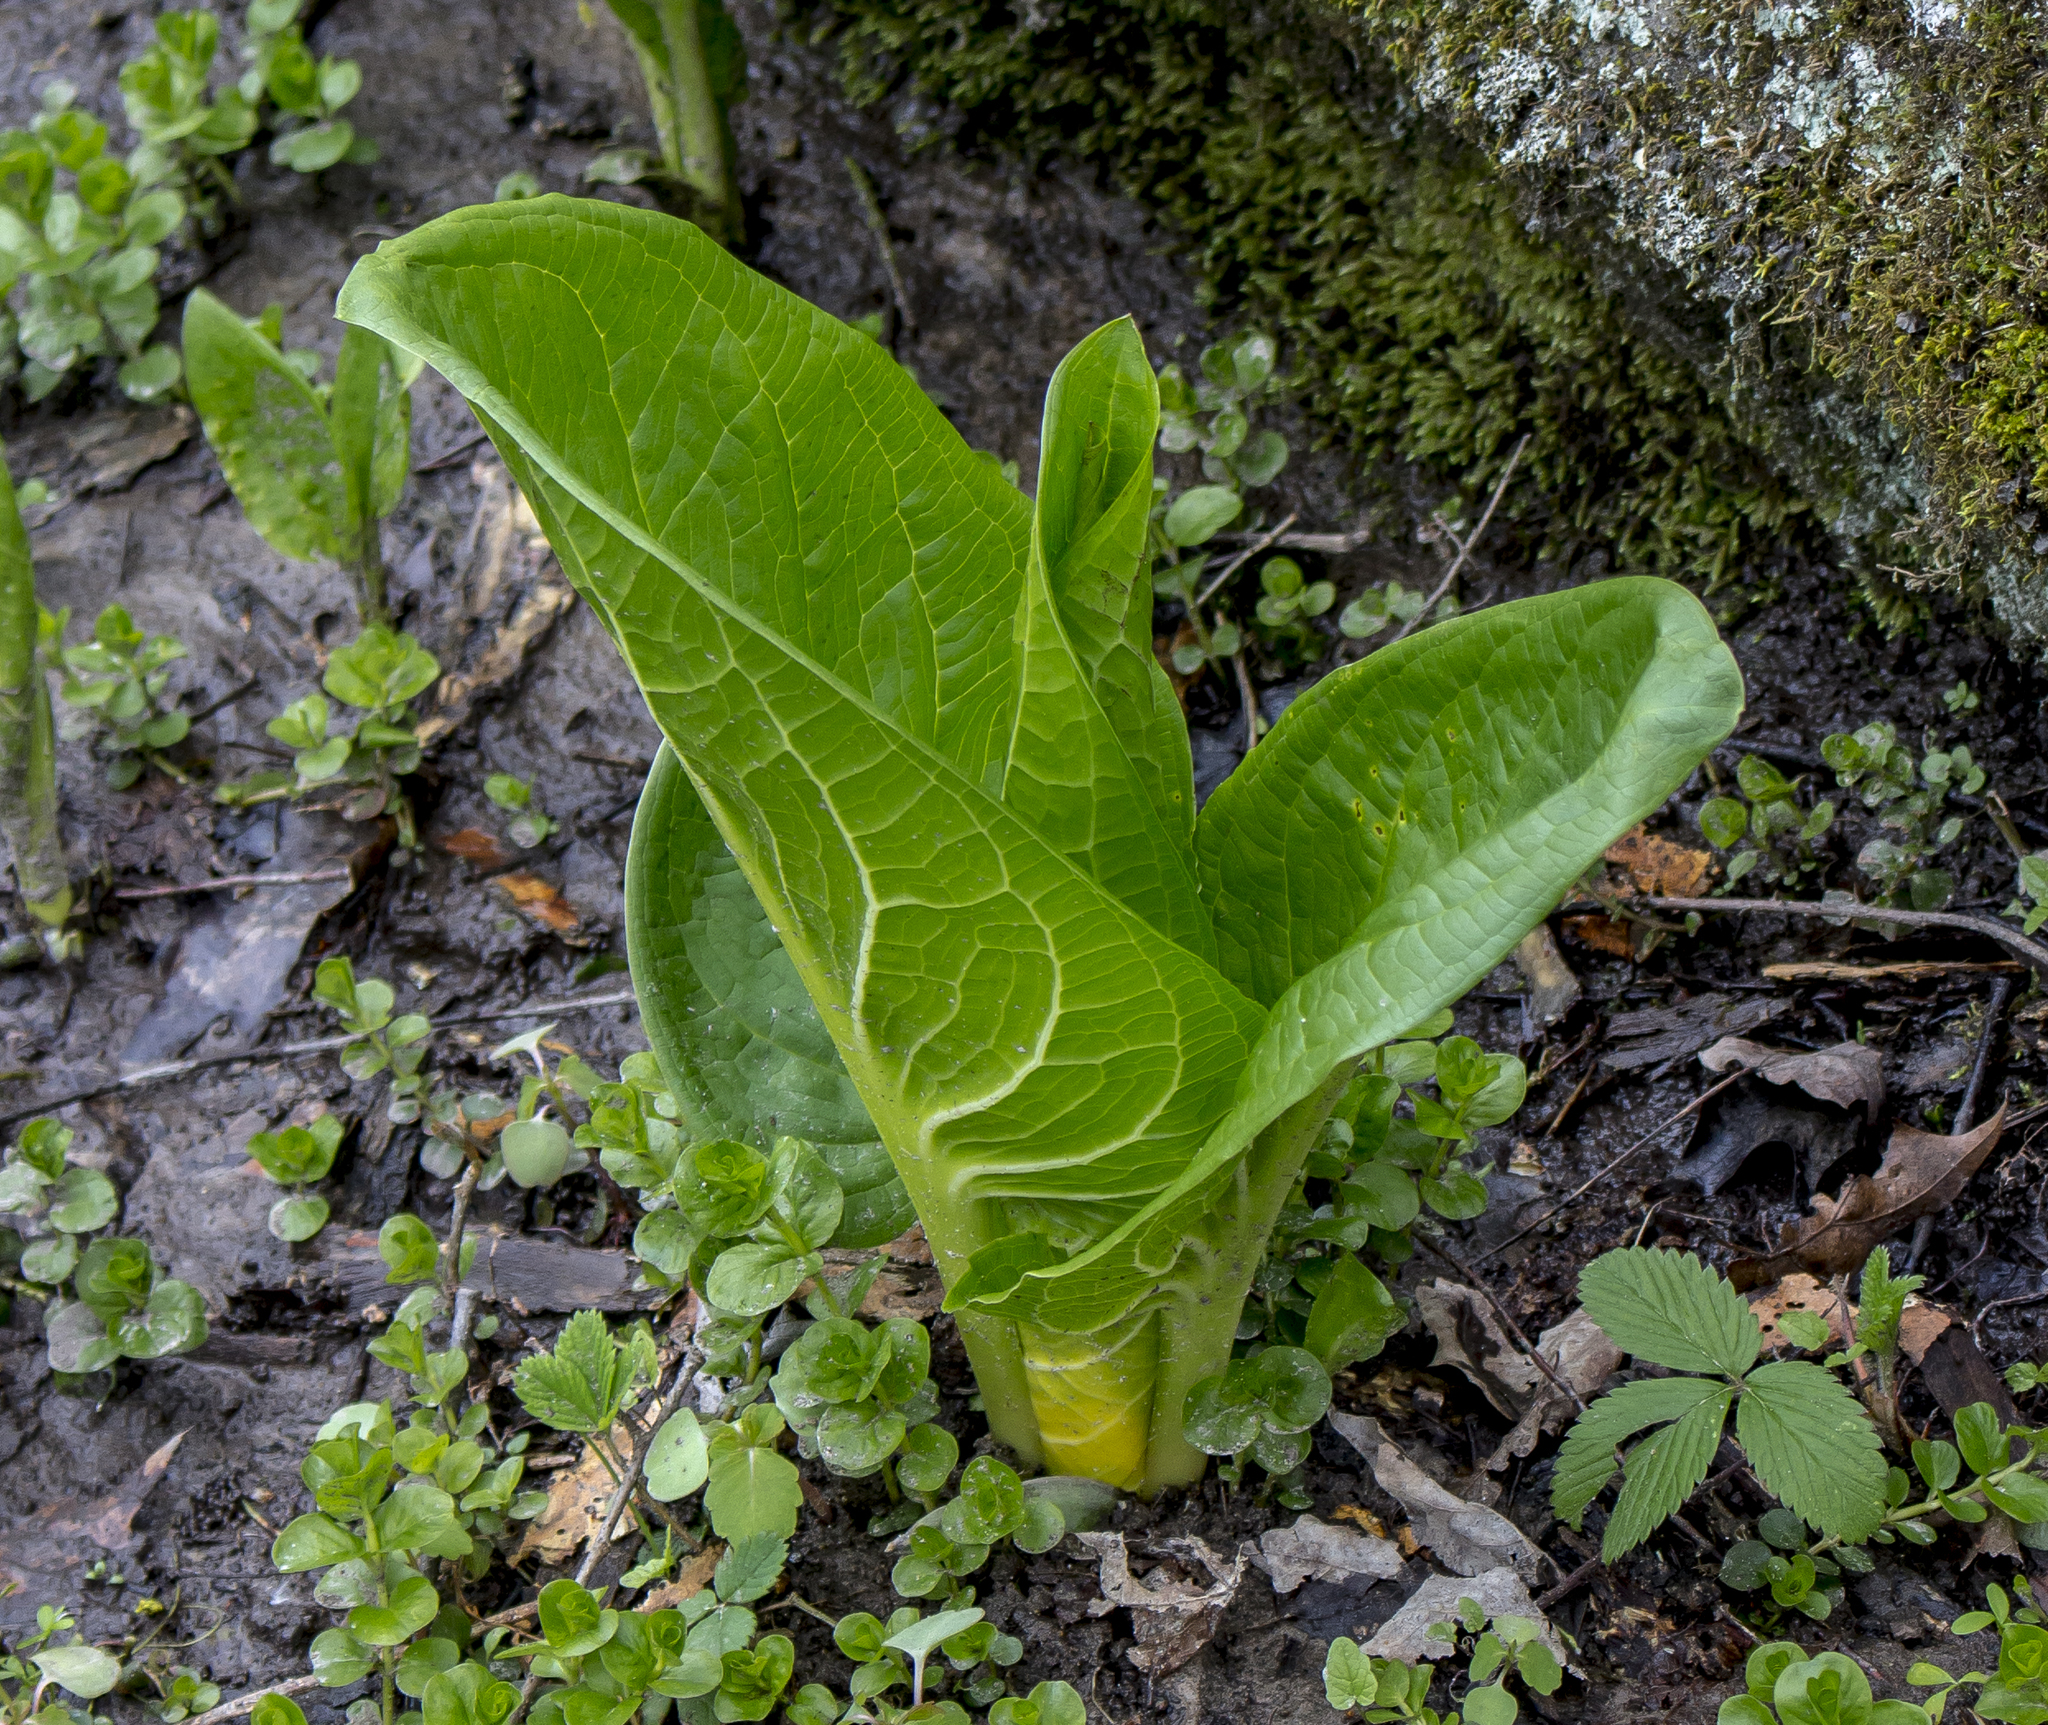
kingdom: Plantae
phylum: Tracheophyta
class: Liliopsida
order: Alismatales
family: Araceae
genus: Symplocarpus
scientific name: Symplocarpus foetidus
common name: Eastern skunk cabbage
